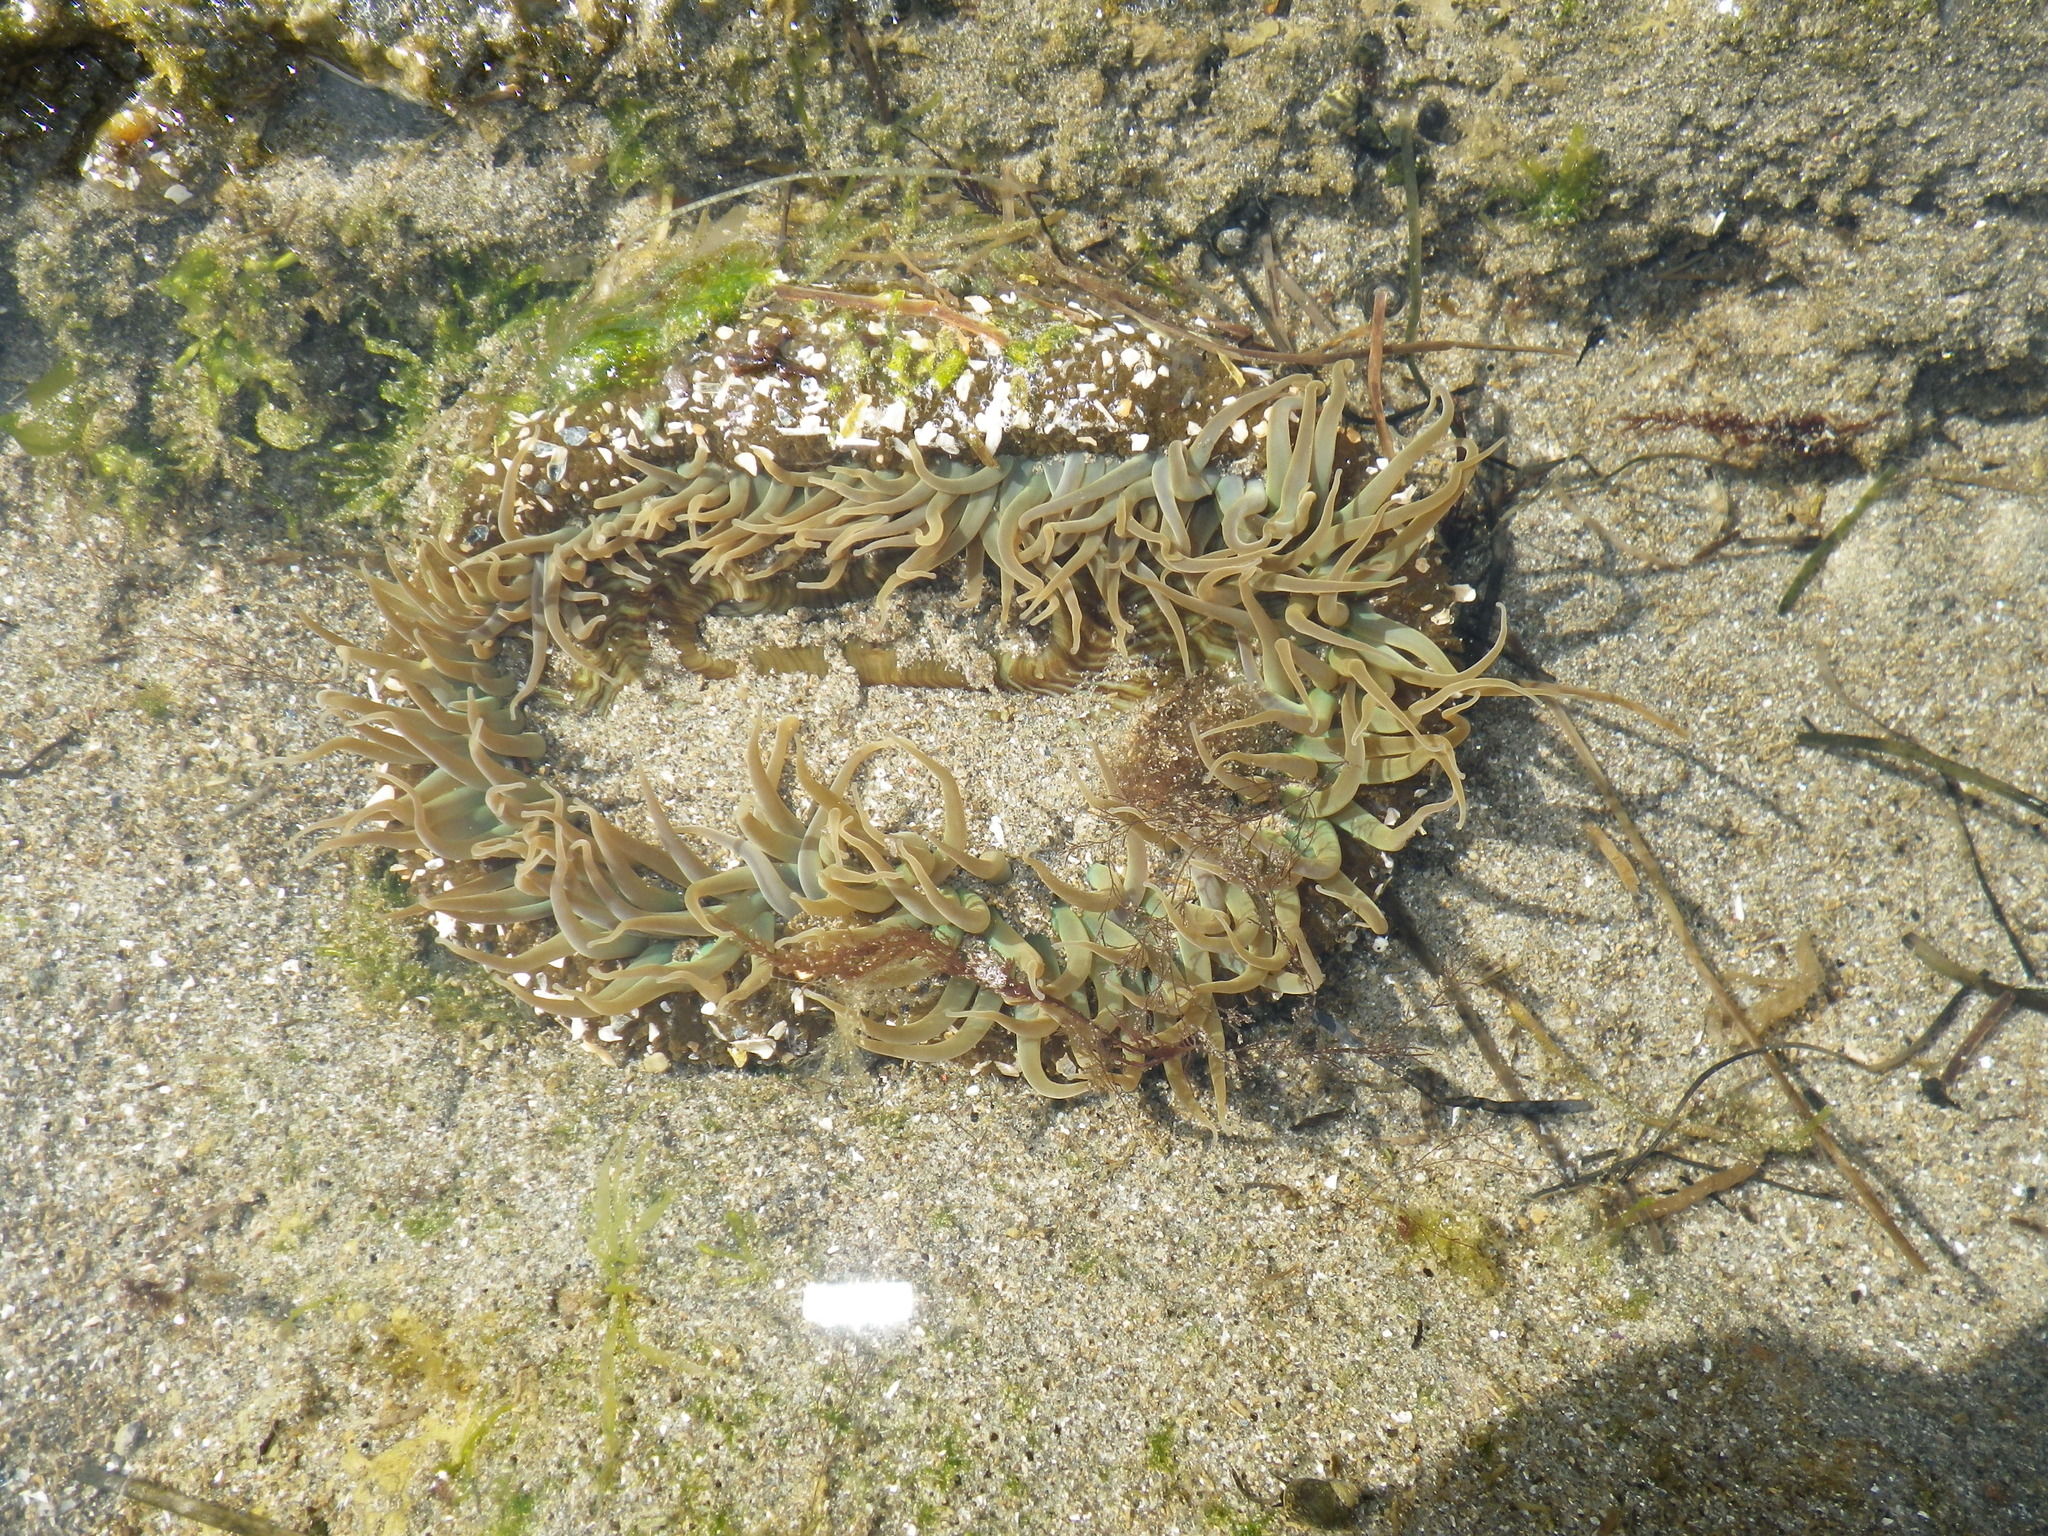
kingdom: Animalia
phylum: Cnidaria
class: Anthozoa
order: Actiniaria
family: Actiniidae
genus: Anthopleura
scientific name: Anthopleura sola
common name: Sun anemone
